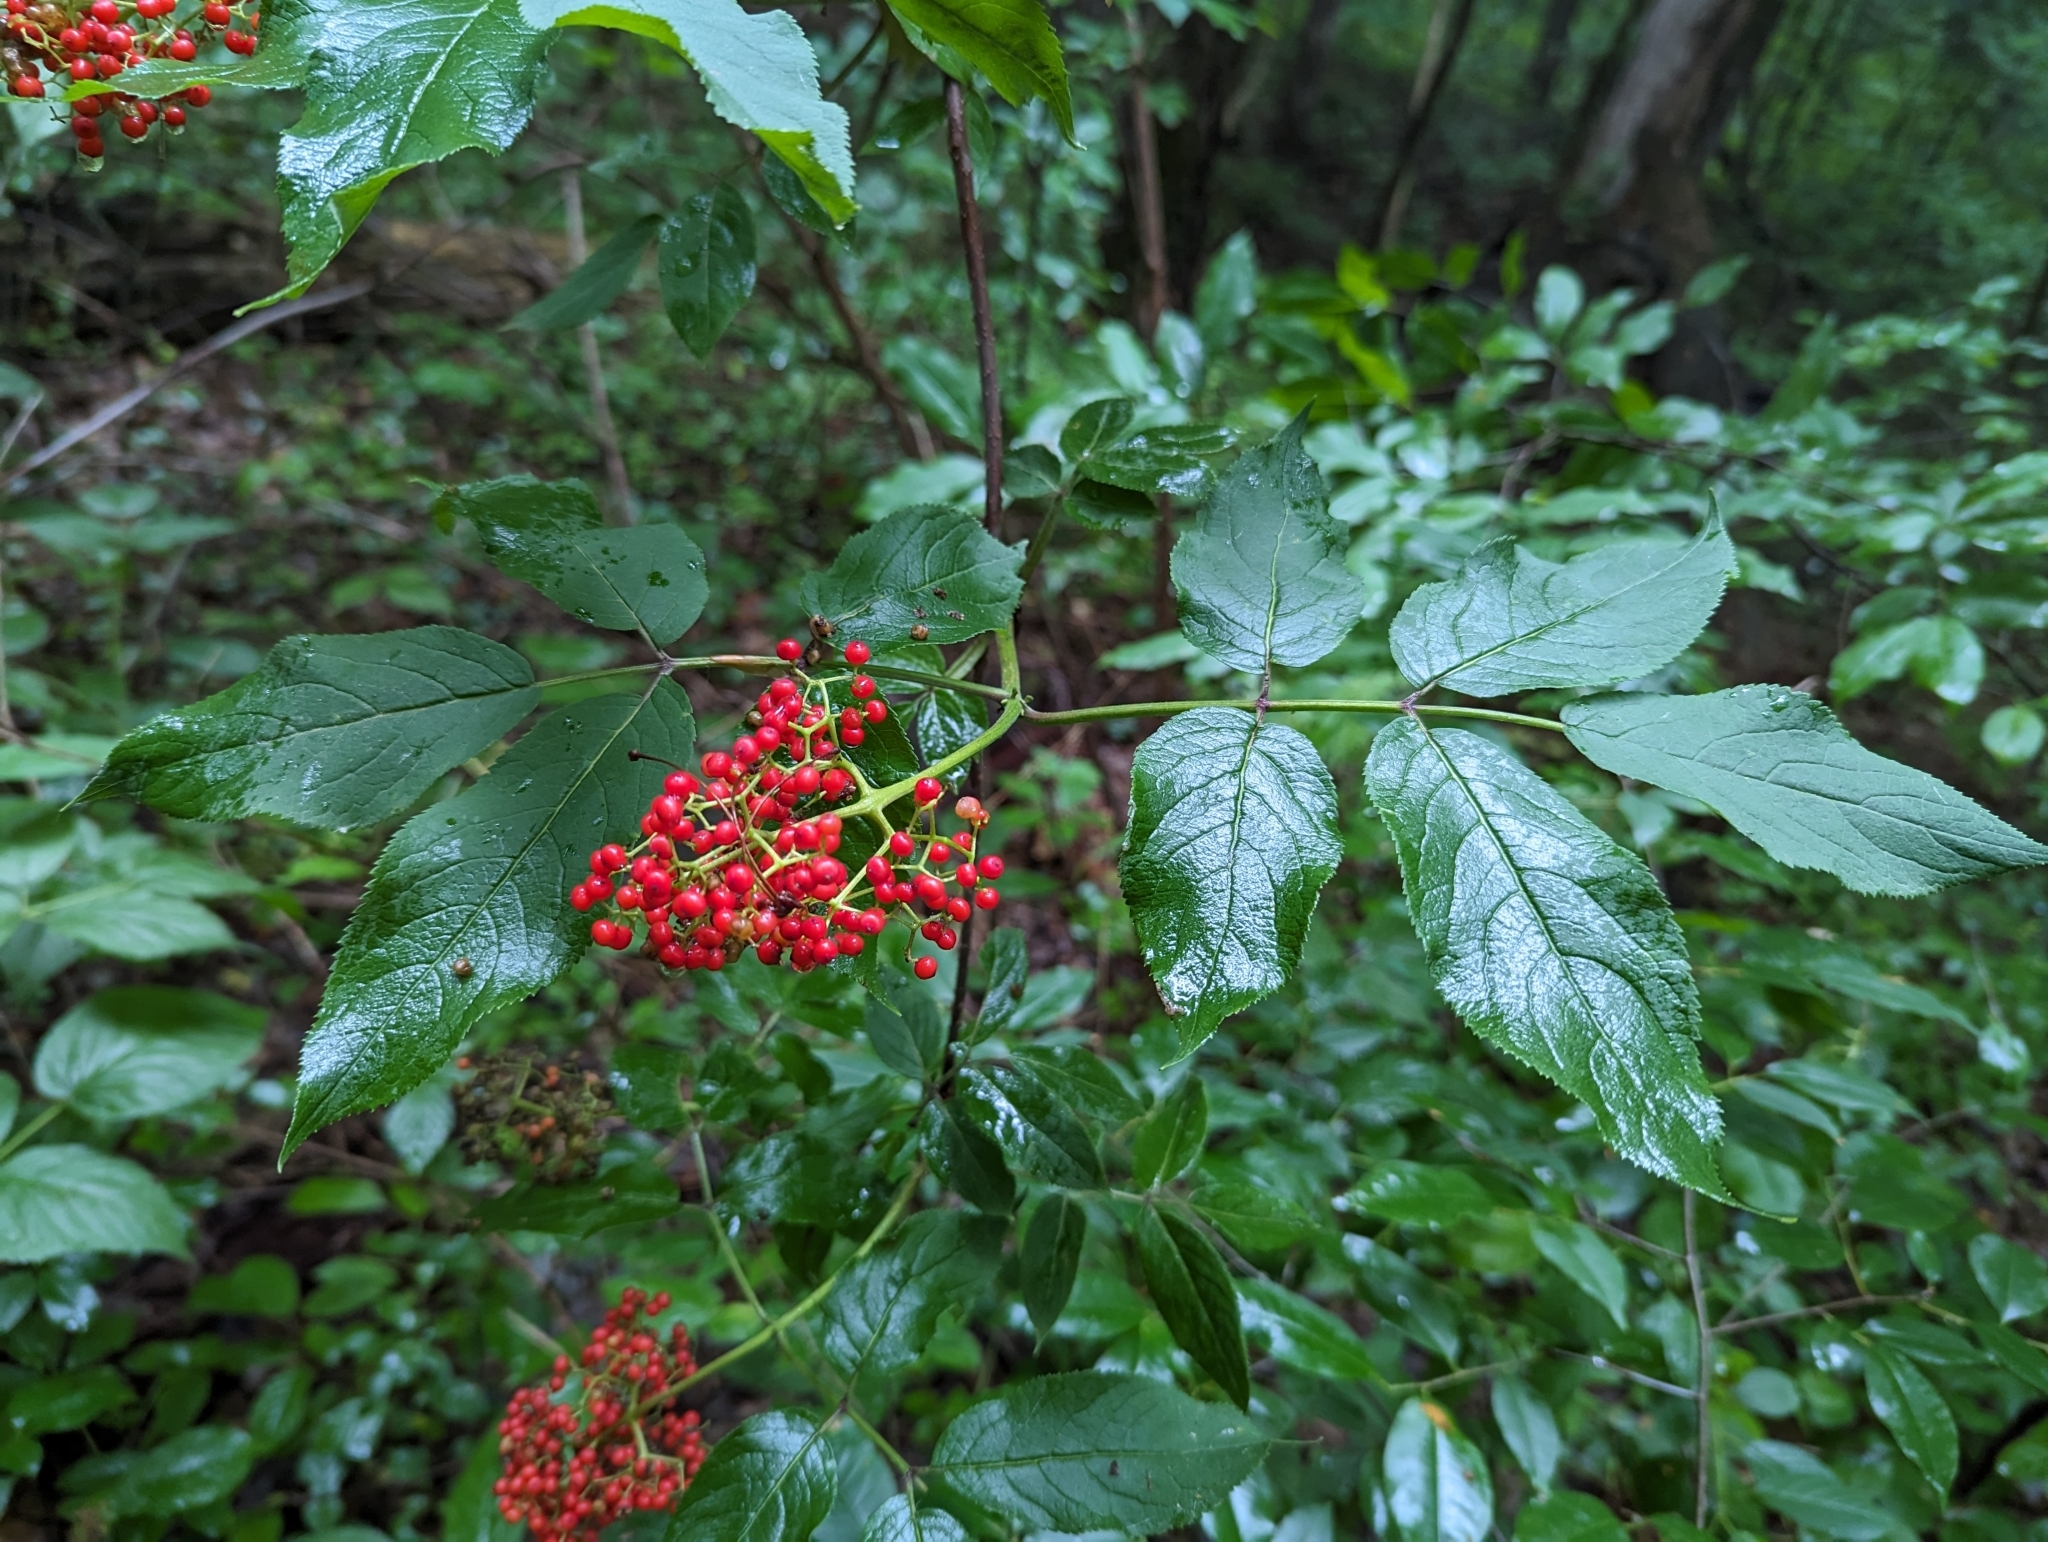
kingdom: Plantae
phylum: Tracheophyta
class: Magnoliopsida
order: Dipsacales
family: Viburnaceae
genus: Sambucus
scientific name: Sambucus racemosa
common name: Red-berried elder
